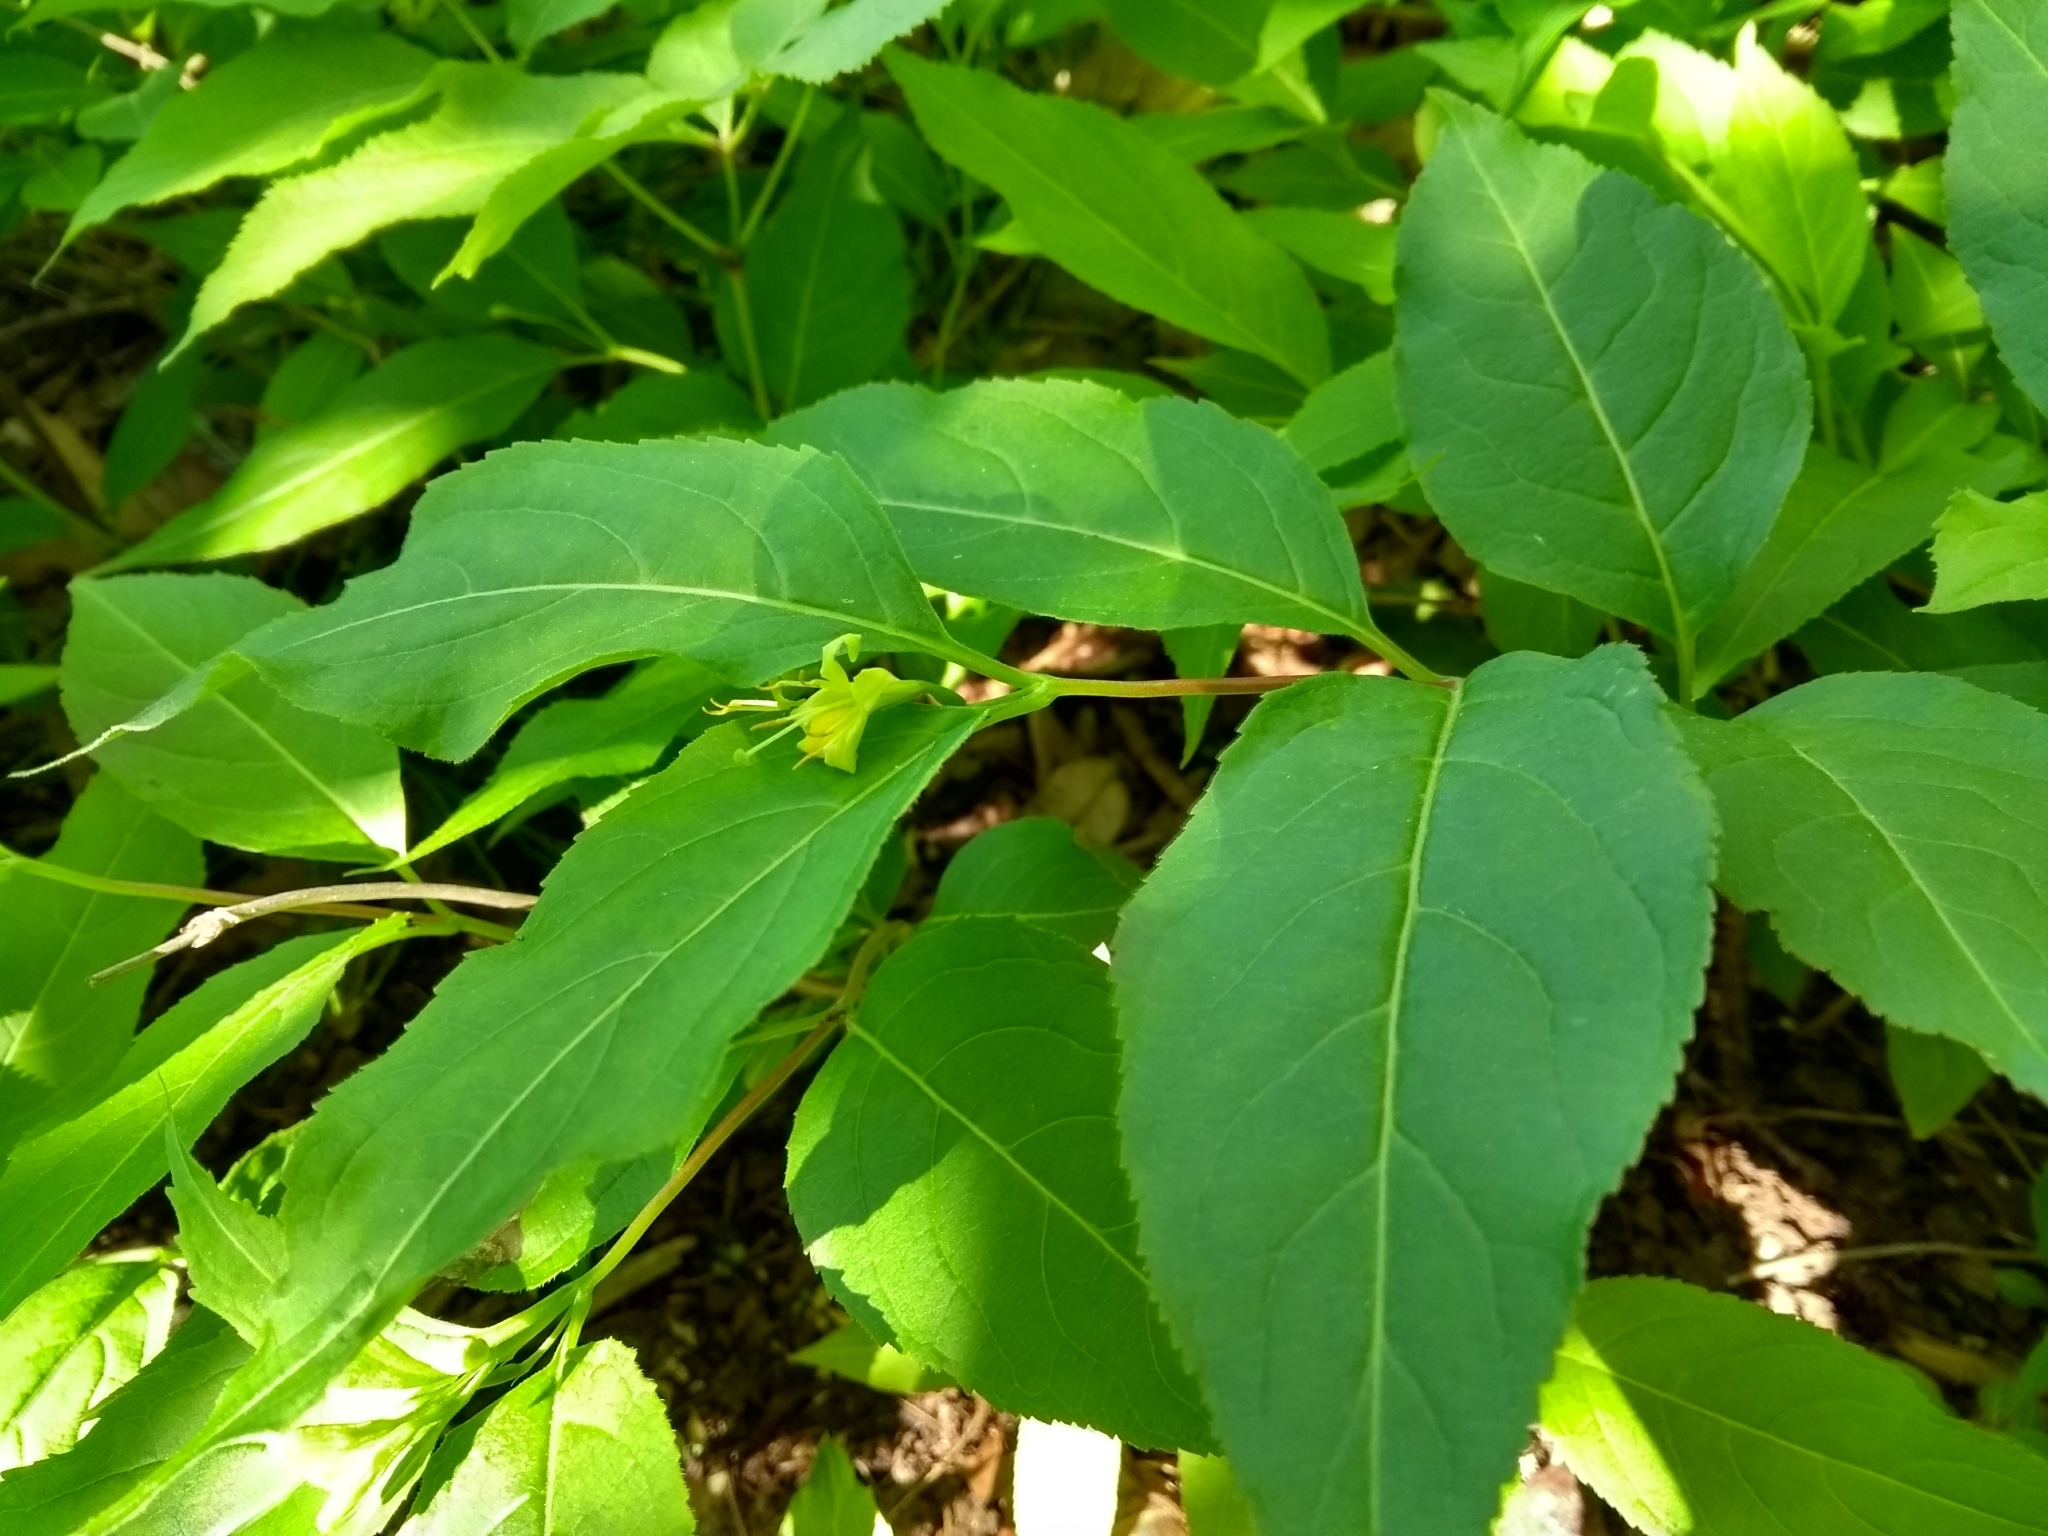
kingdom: Plantae
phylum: Tracheophyta
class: Magnoliopsida
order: Dipsacales
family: Caprifoliaceae
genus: Diervilla
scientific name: Diervilla lonicera
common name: Bush-honeysuckle
